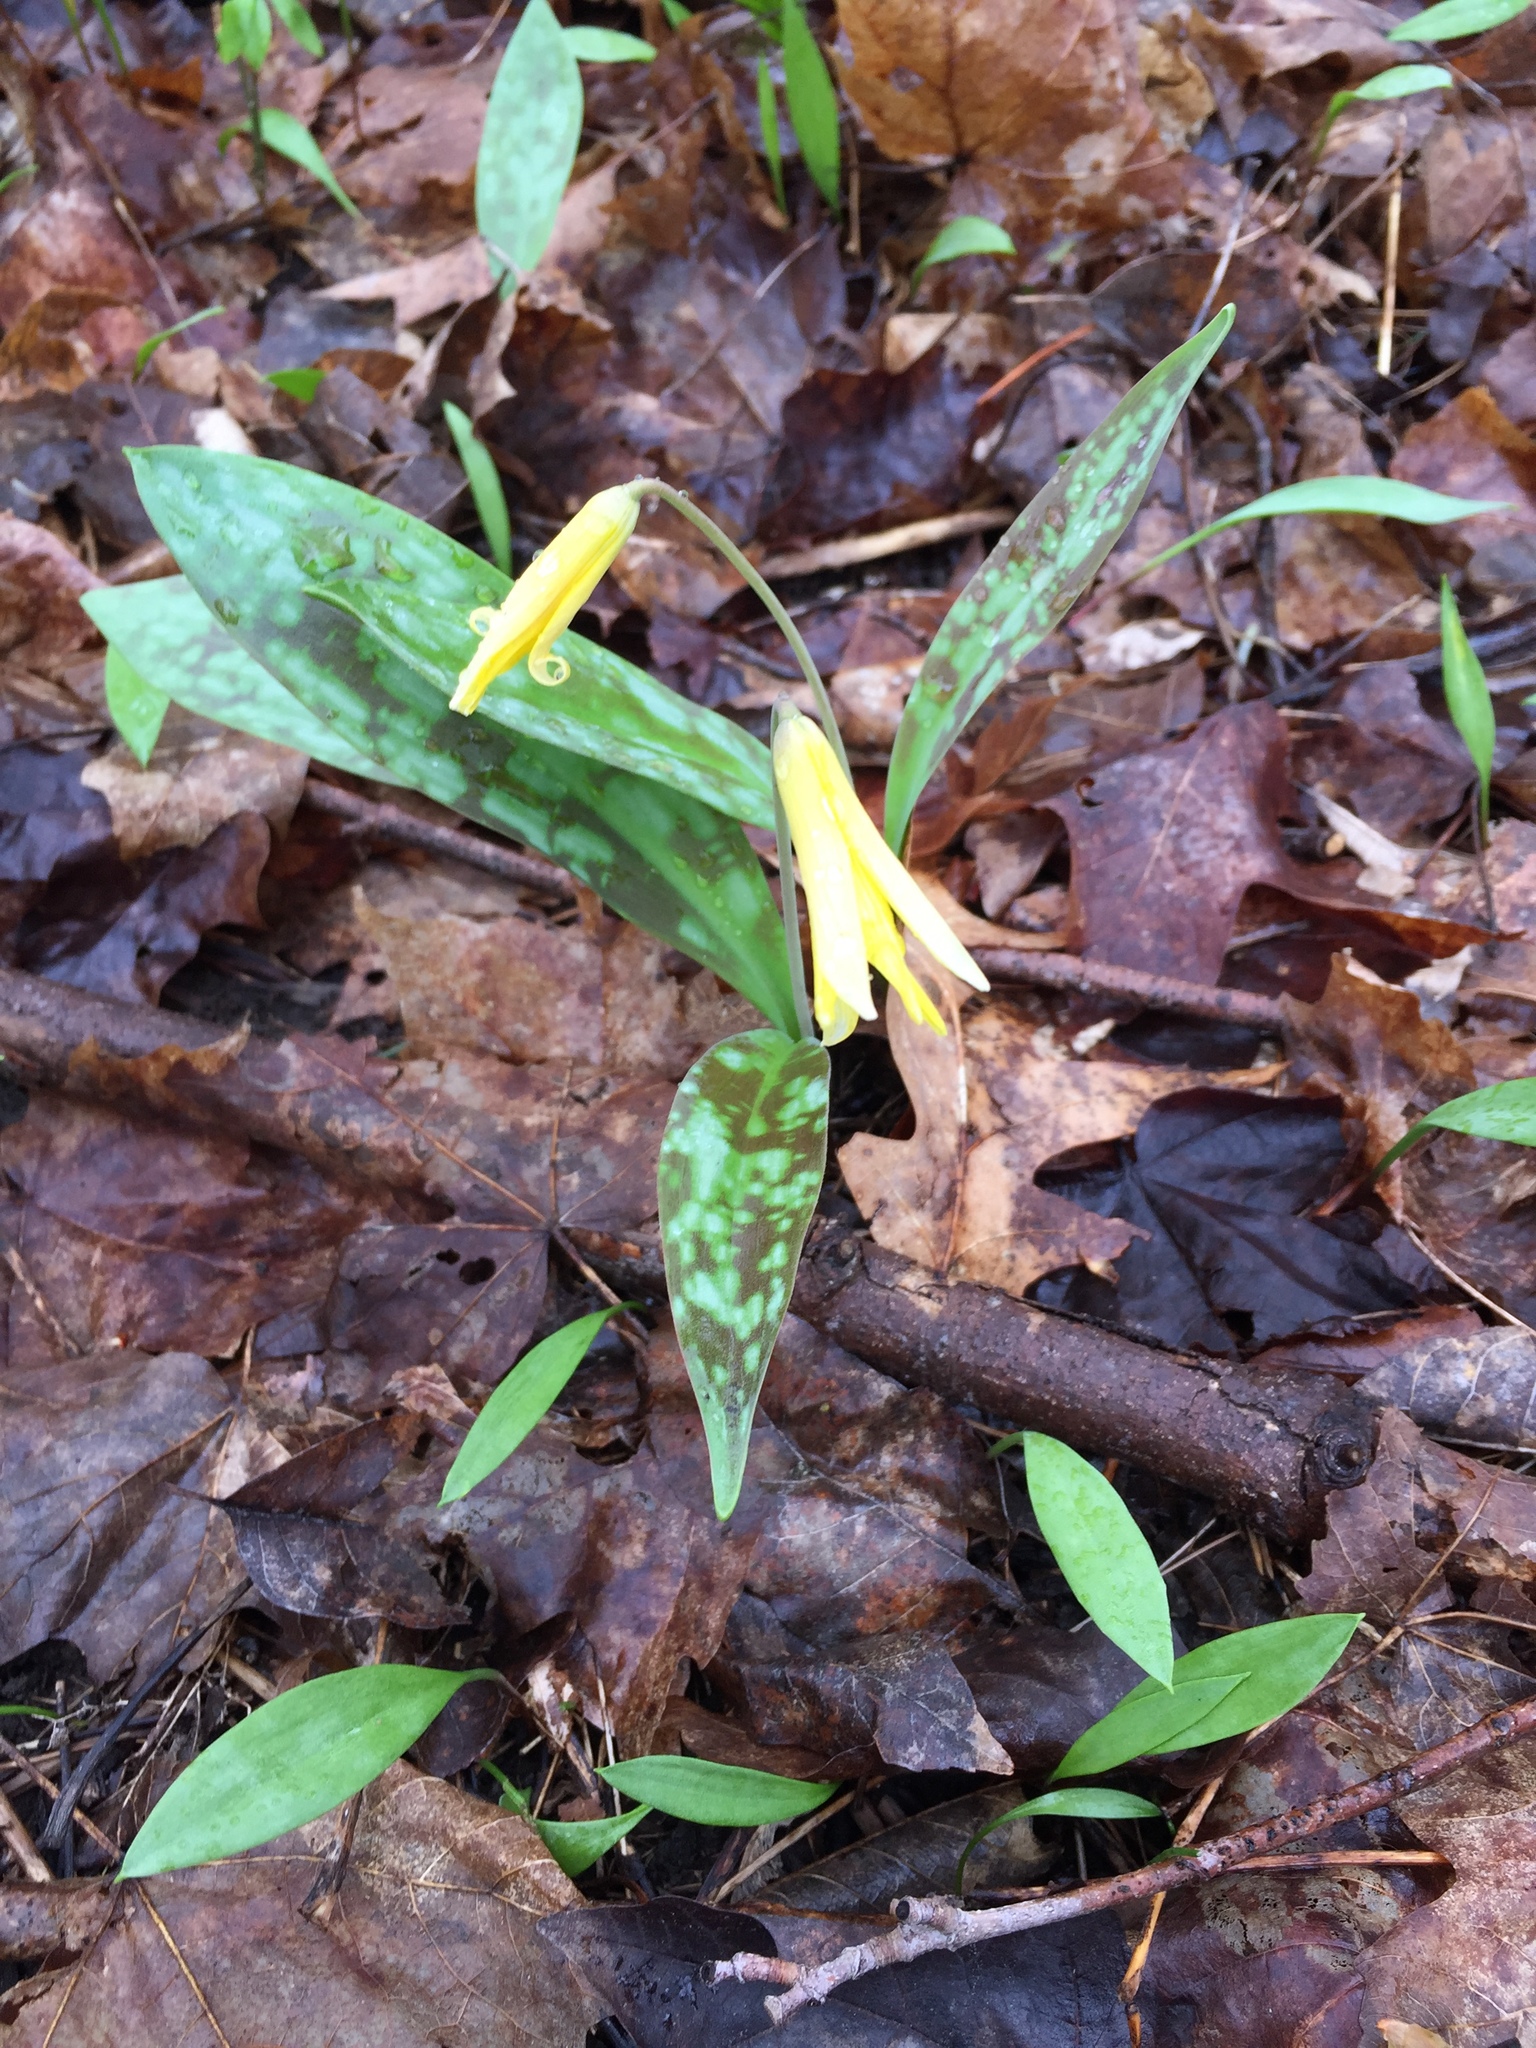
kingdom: Plantae
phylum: Tracheophyta
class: Liliopsida
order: Liliales
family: Liliaceae
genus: Erythronium
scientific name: Erythronium americanum
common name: Yellow adder's-tongue
